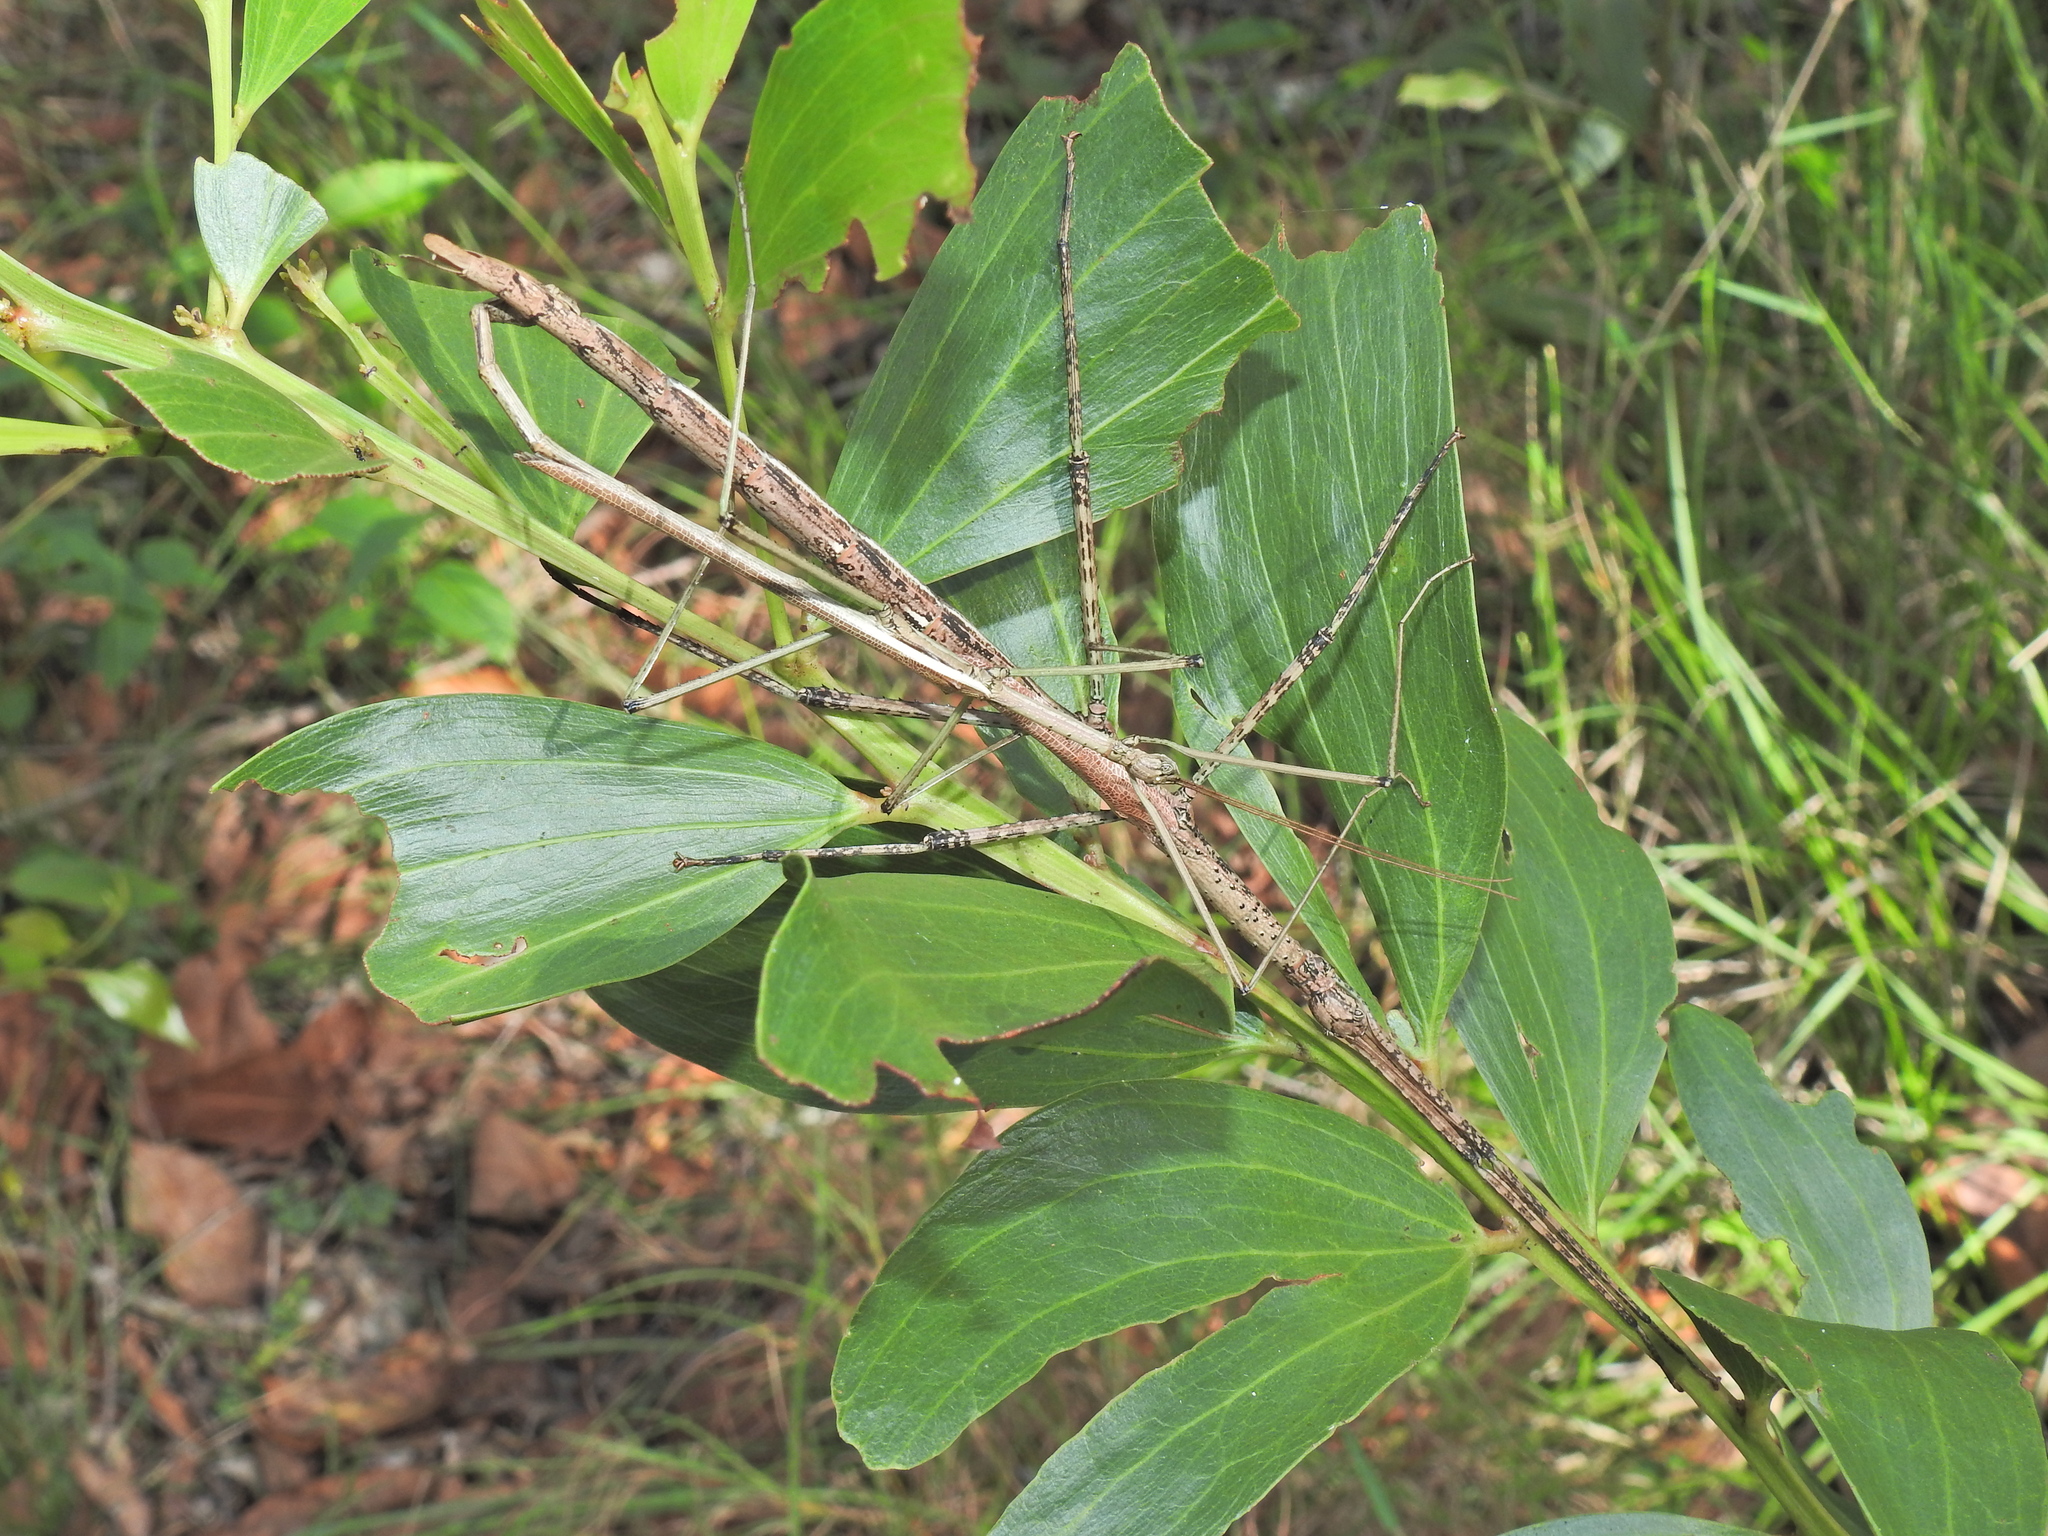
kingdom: Animalia
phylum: Arthropoda
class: Insecta
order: Phasmida
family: Phasmatidae
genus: Anchiale
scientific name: Anchiale austrotessulata
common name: Tessellated stick-insect
